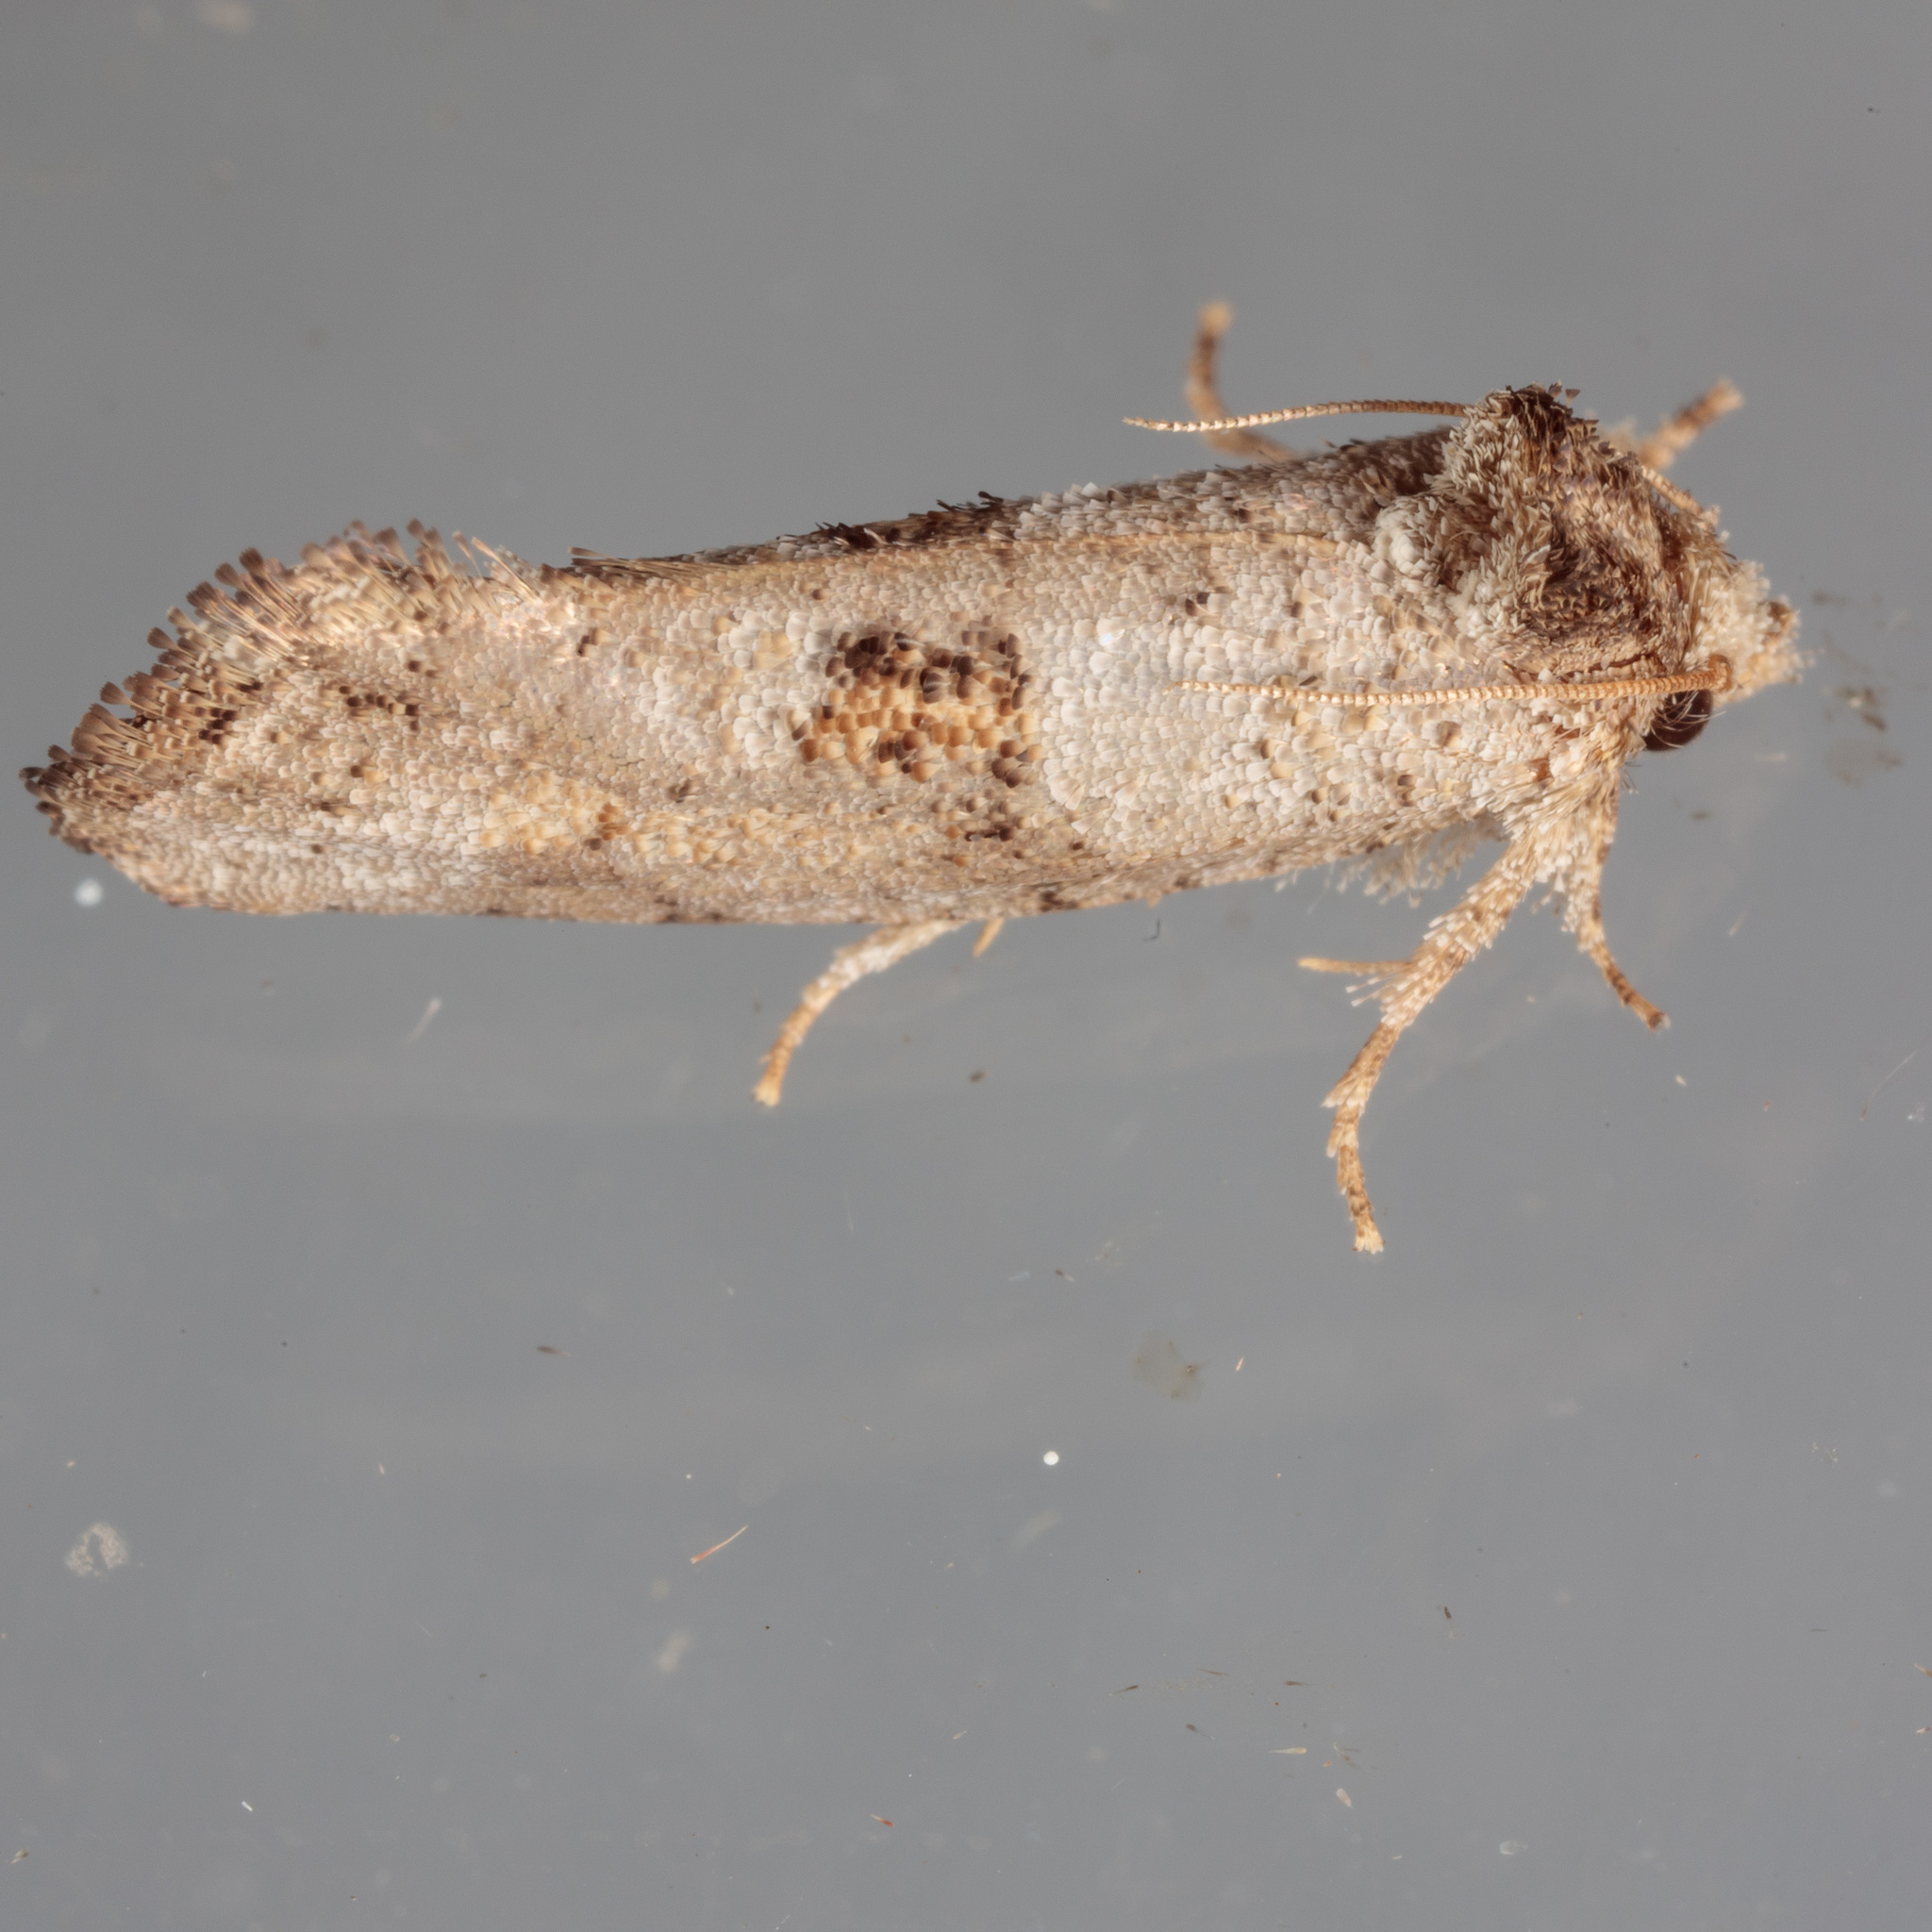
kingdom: Animalia
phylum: Arthropoda
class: Insecta
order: Lepidoptera
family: Tineidae
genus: Acrolophus
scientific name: Acrolophus piger
